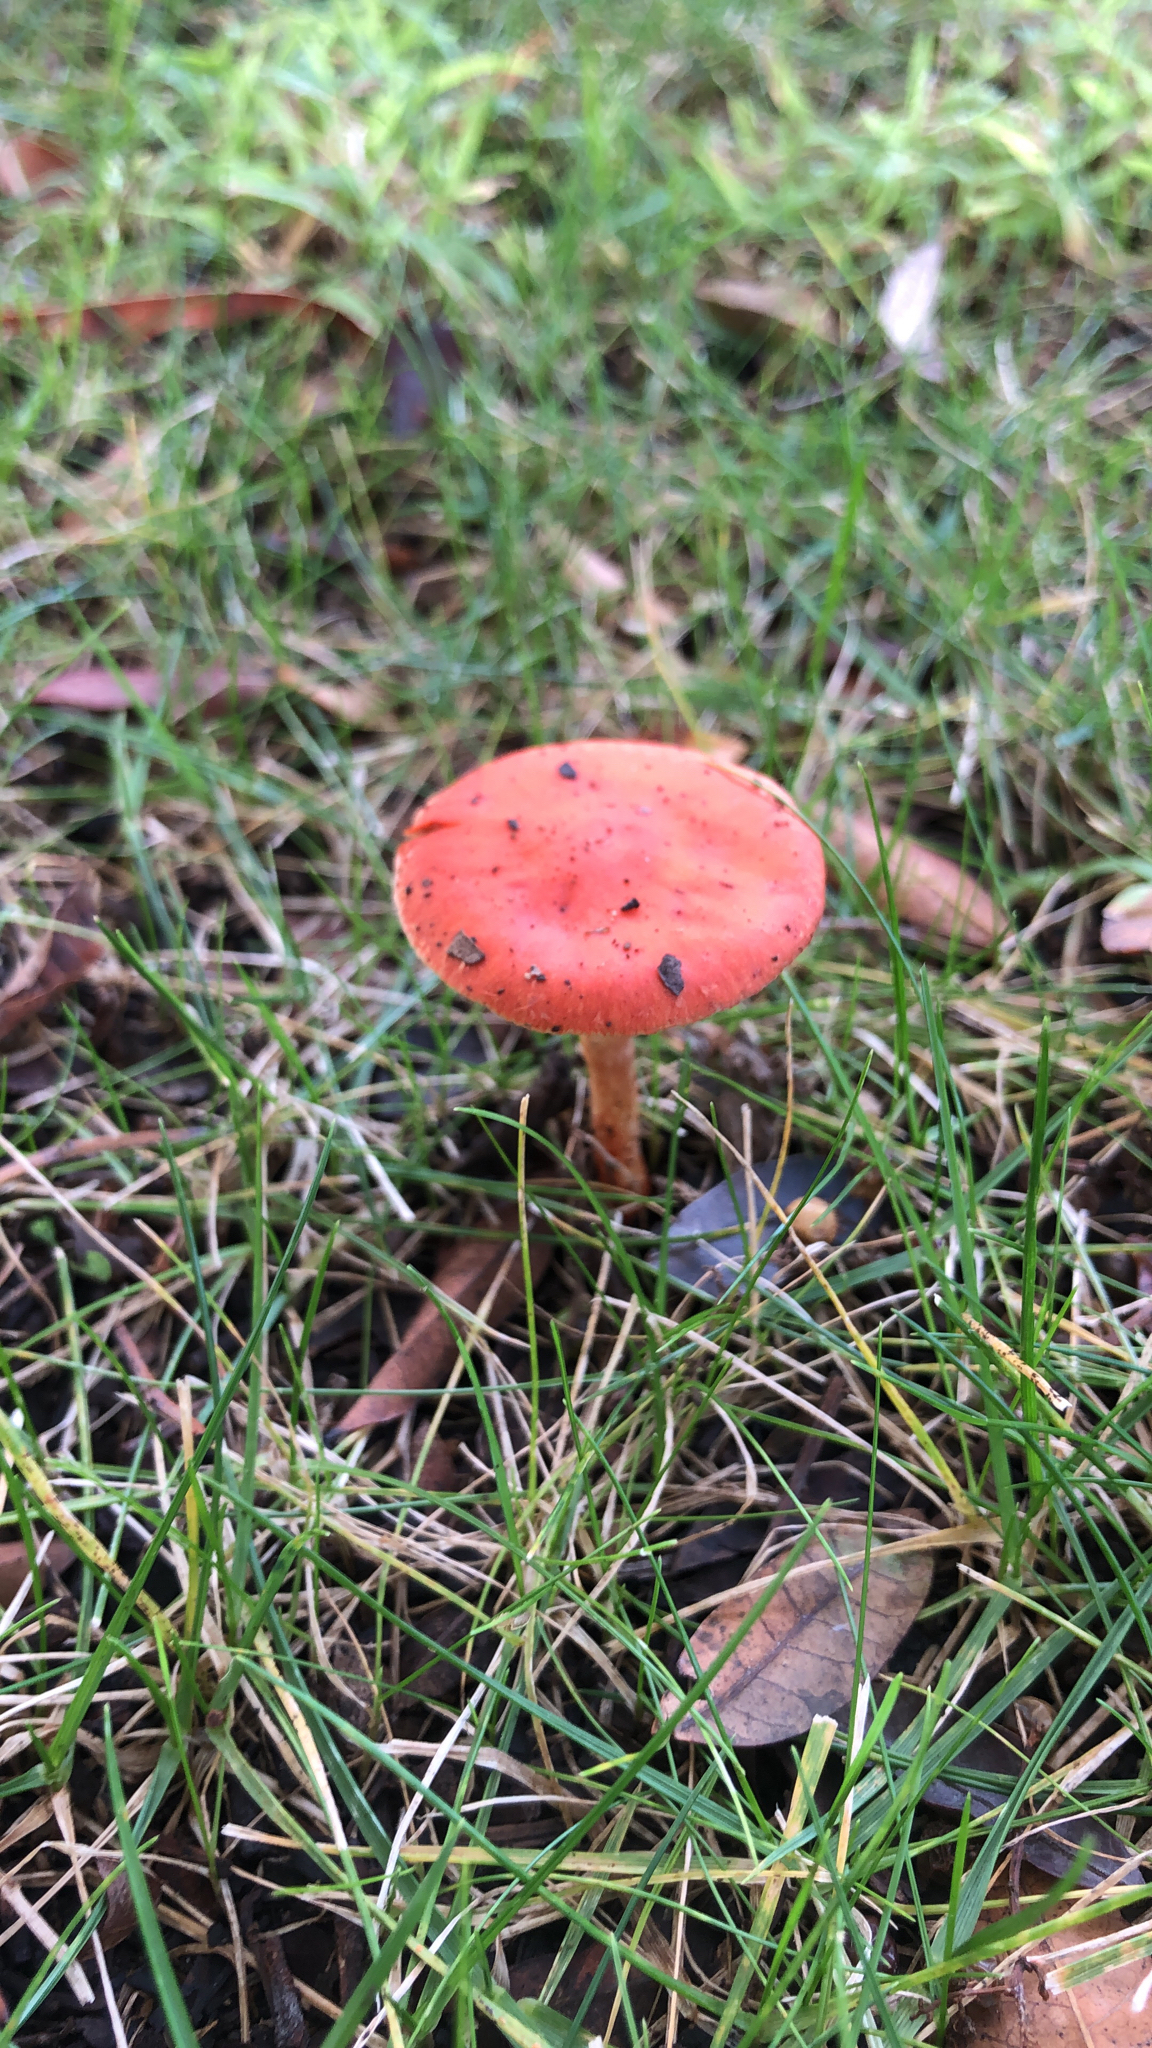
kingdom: Fungi
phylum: Basidiomycota
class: Agaricomycetes
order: Agaricales
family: Strophariaceae
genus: Leratiomyces
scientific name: Leratiomyces ceres
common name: Redlead roundhead
